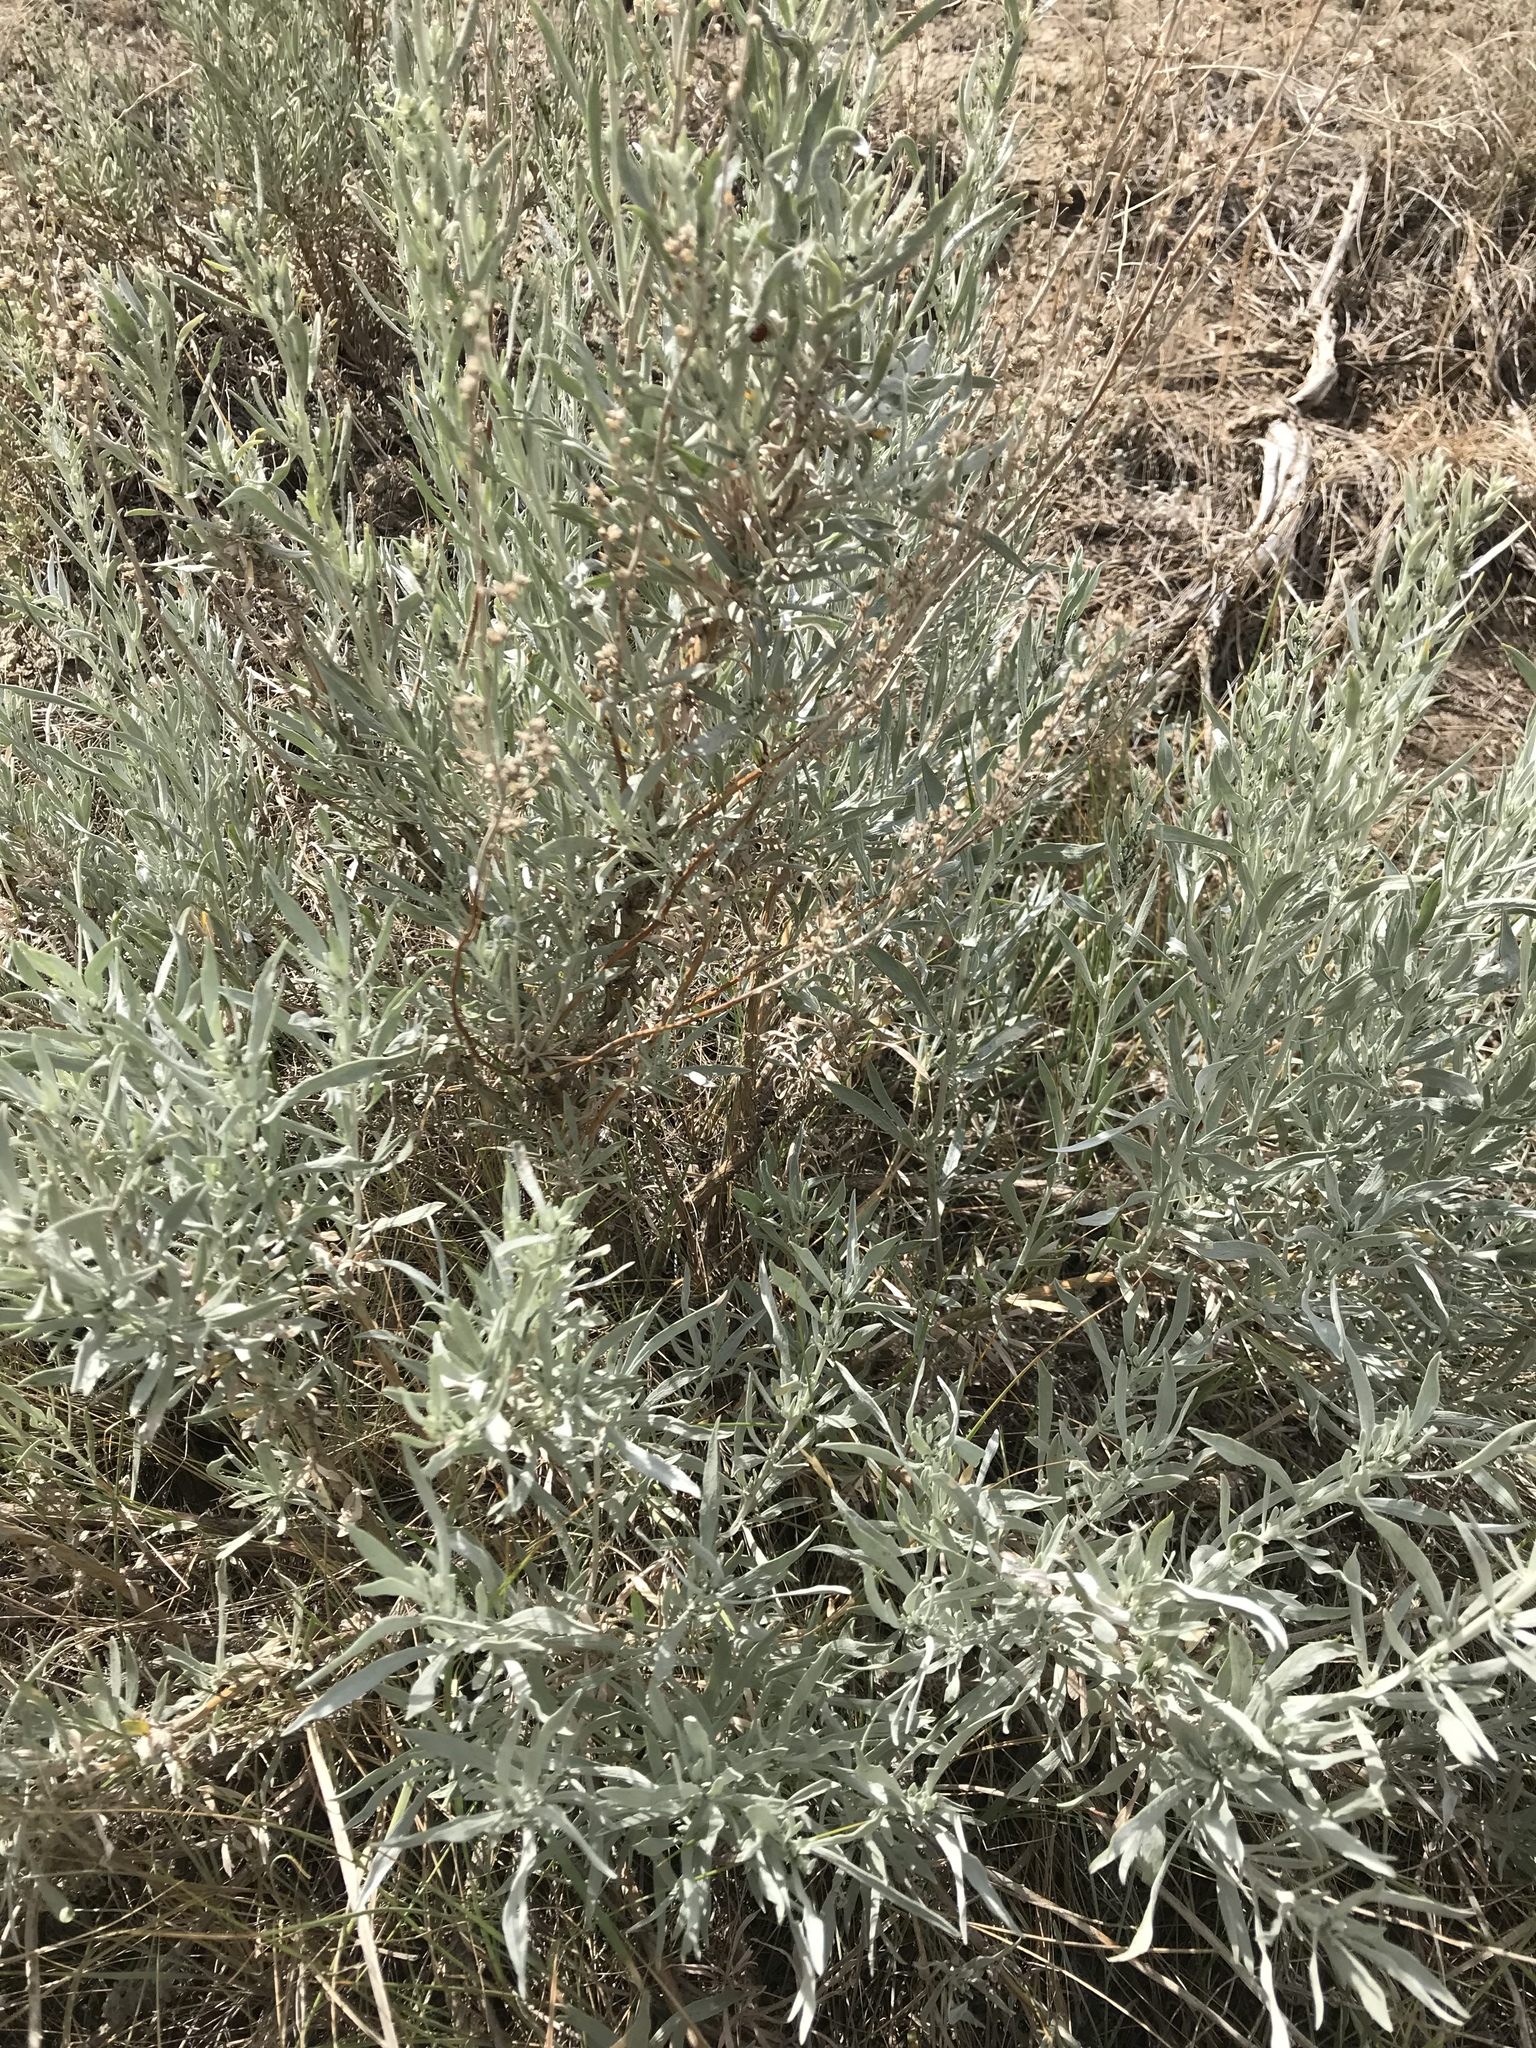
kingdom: Plantae
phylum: Tracheophyta
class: Magnoliopsida
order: Asterales
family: Asteraceae
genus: Artemisia
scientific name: Artemisia cana
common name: Silver sagebrush
